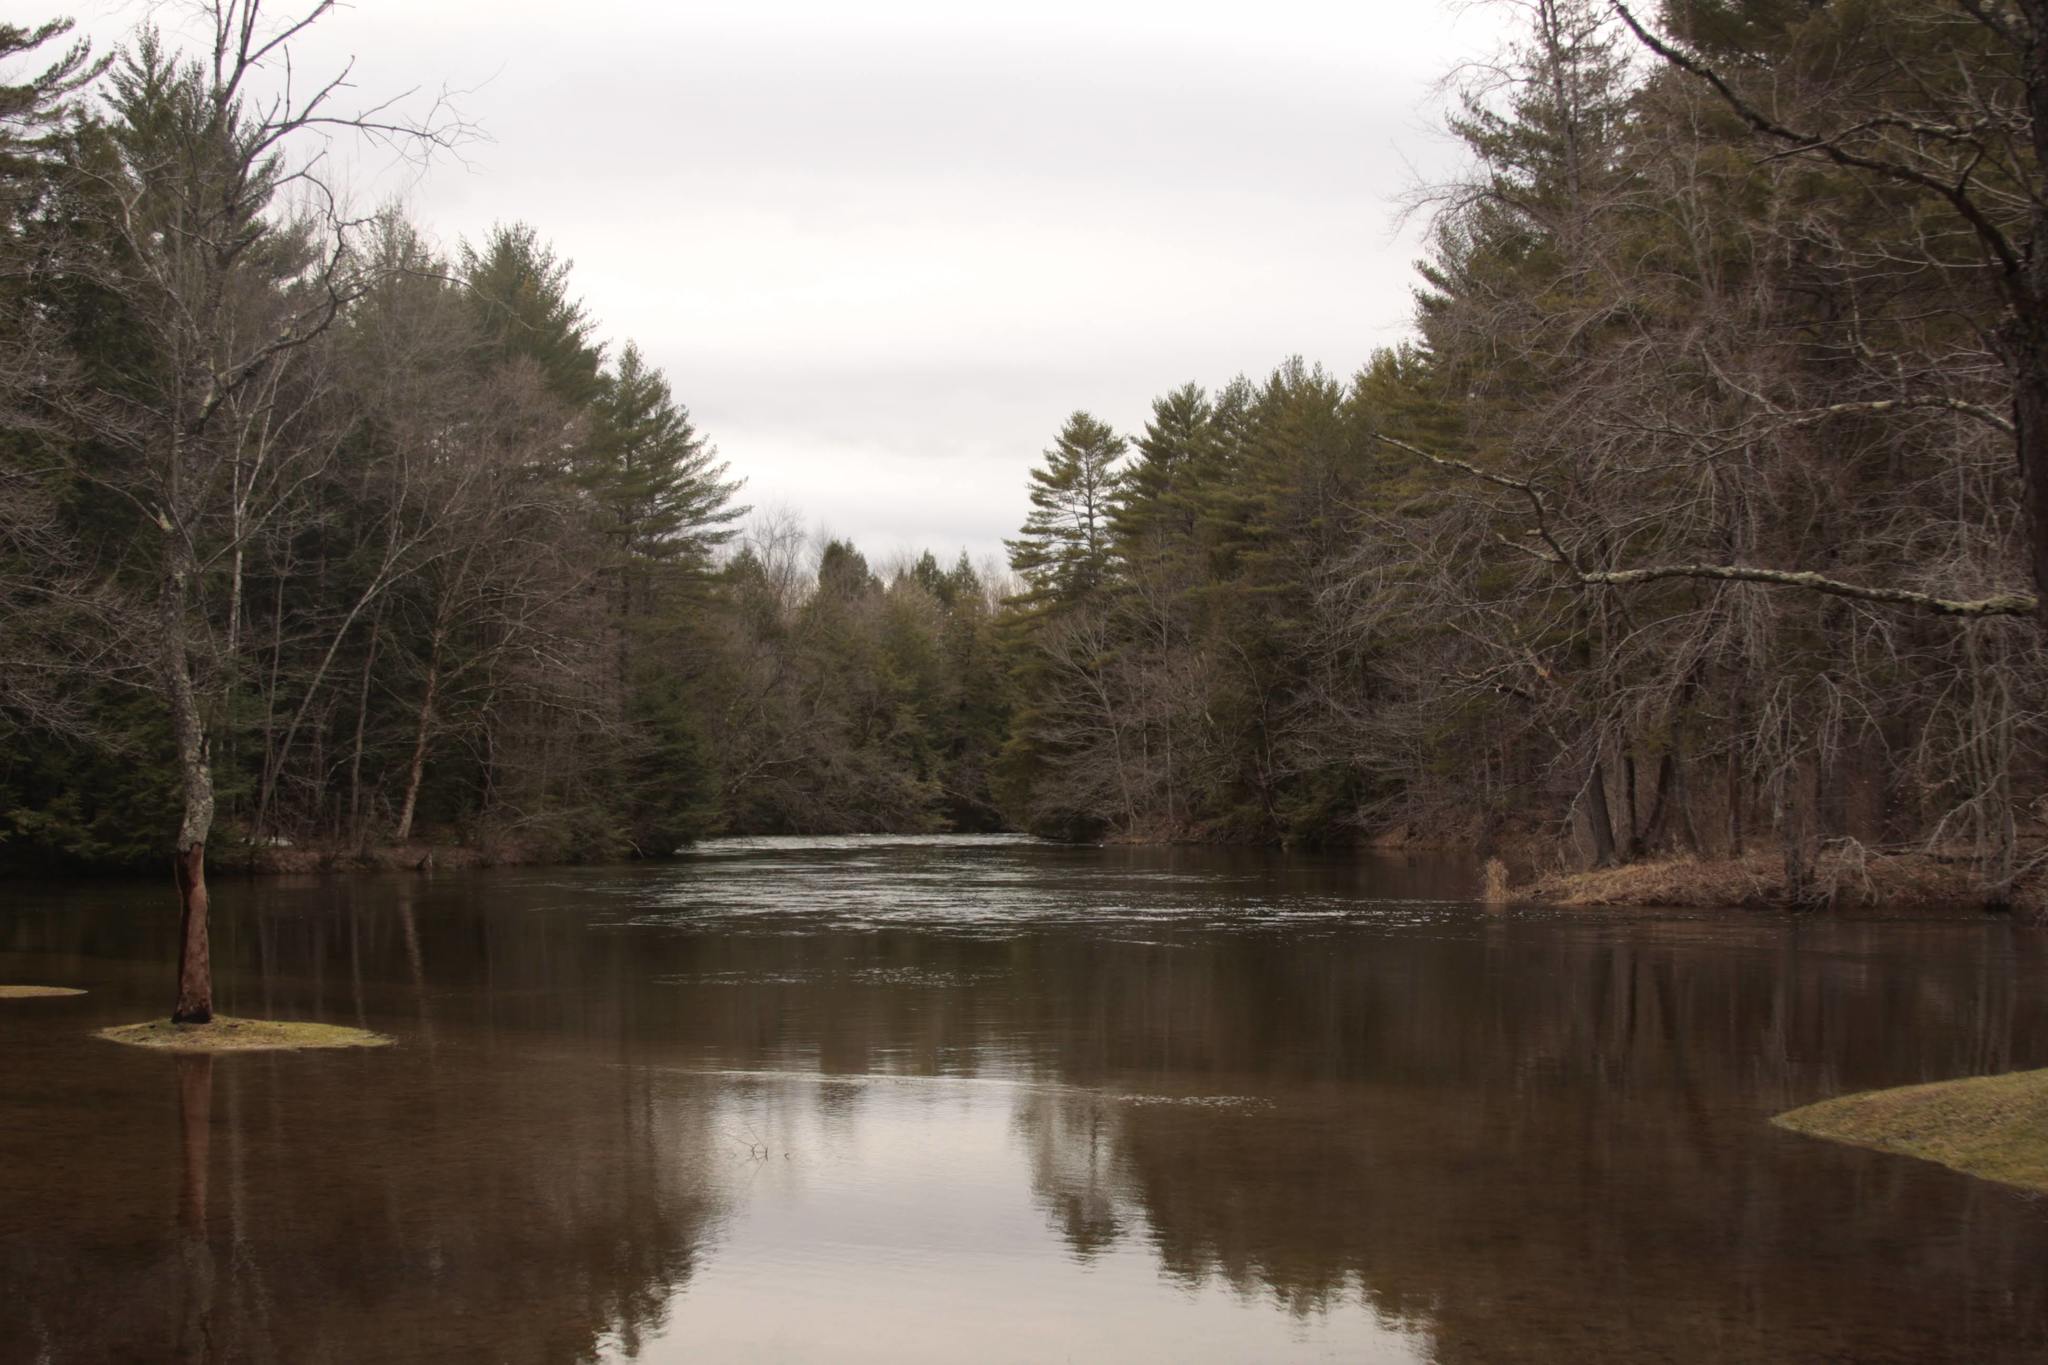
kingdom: Plantae
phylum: Tracheophyta
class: Pinopsida
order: Pinales
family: Pinaceae
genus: Pinus
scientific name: Pinus strobus
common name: Weymouth pine
